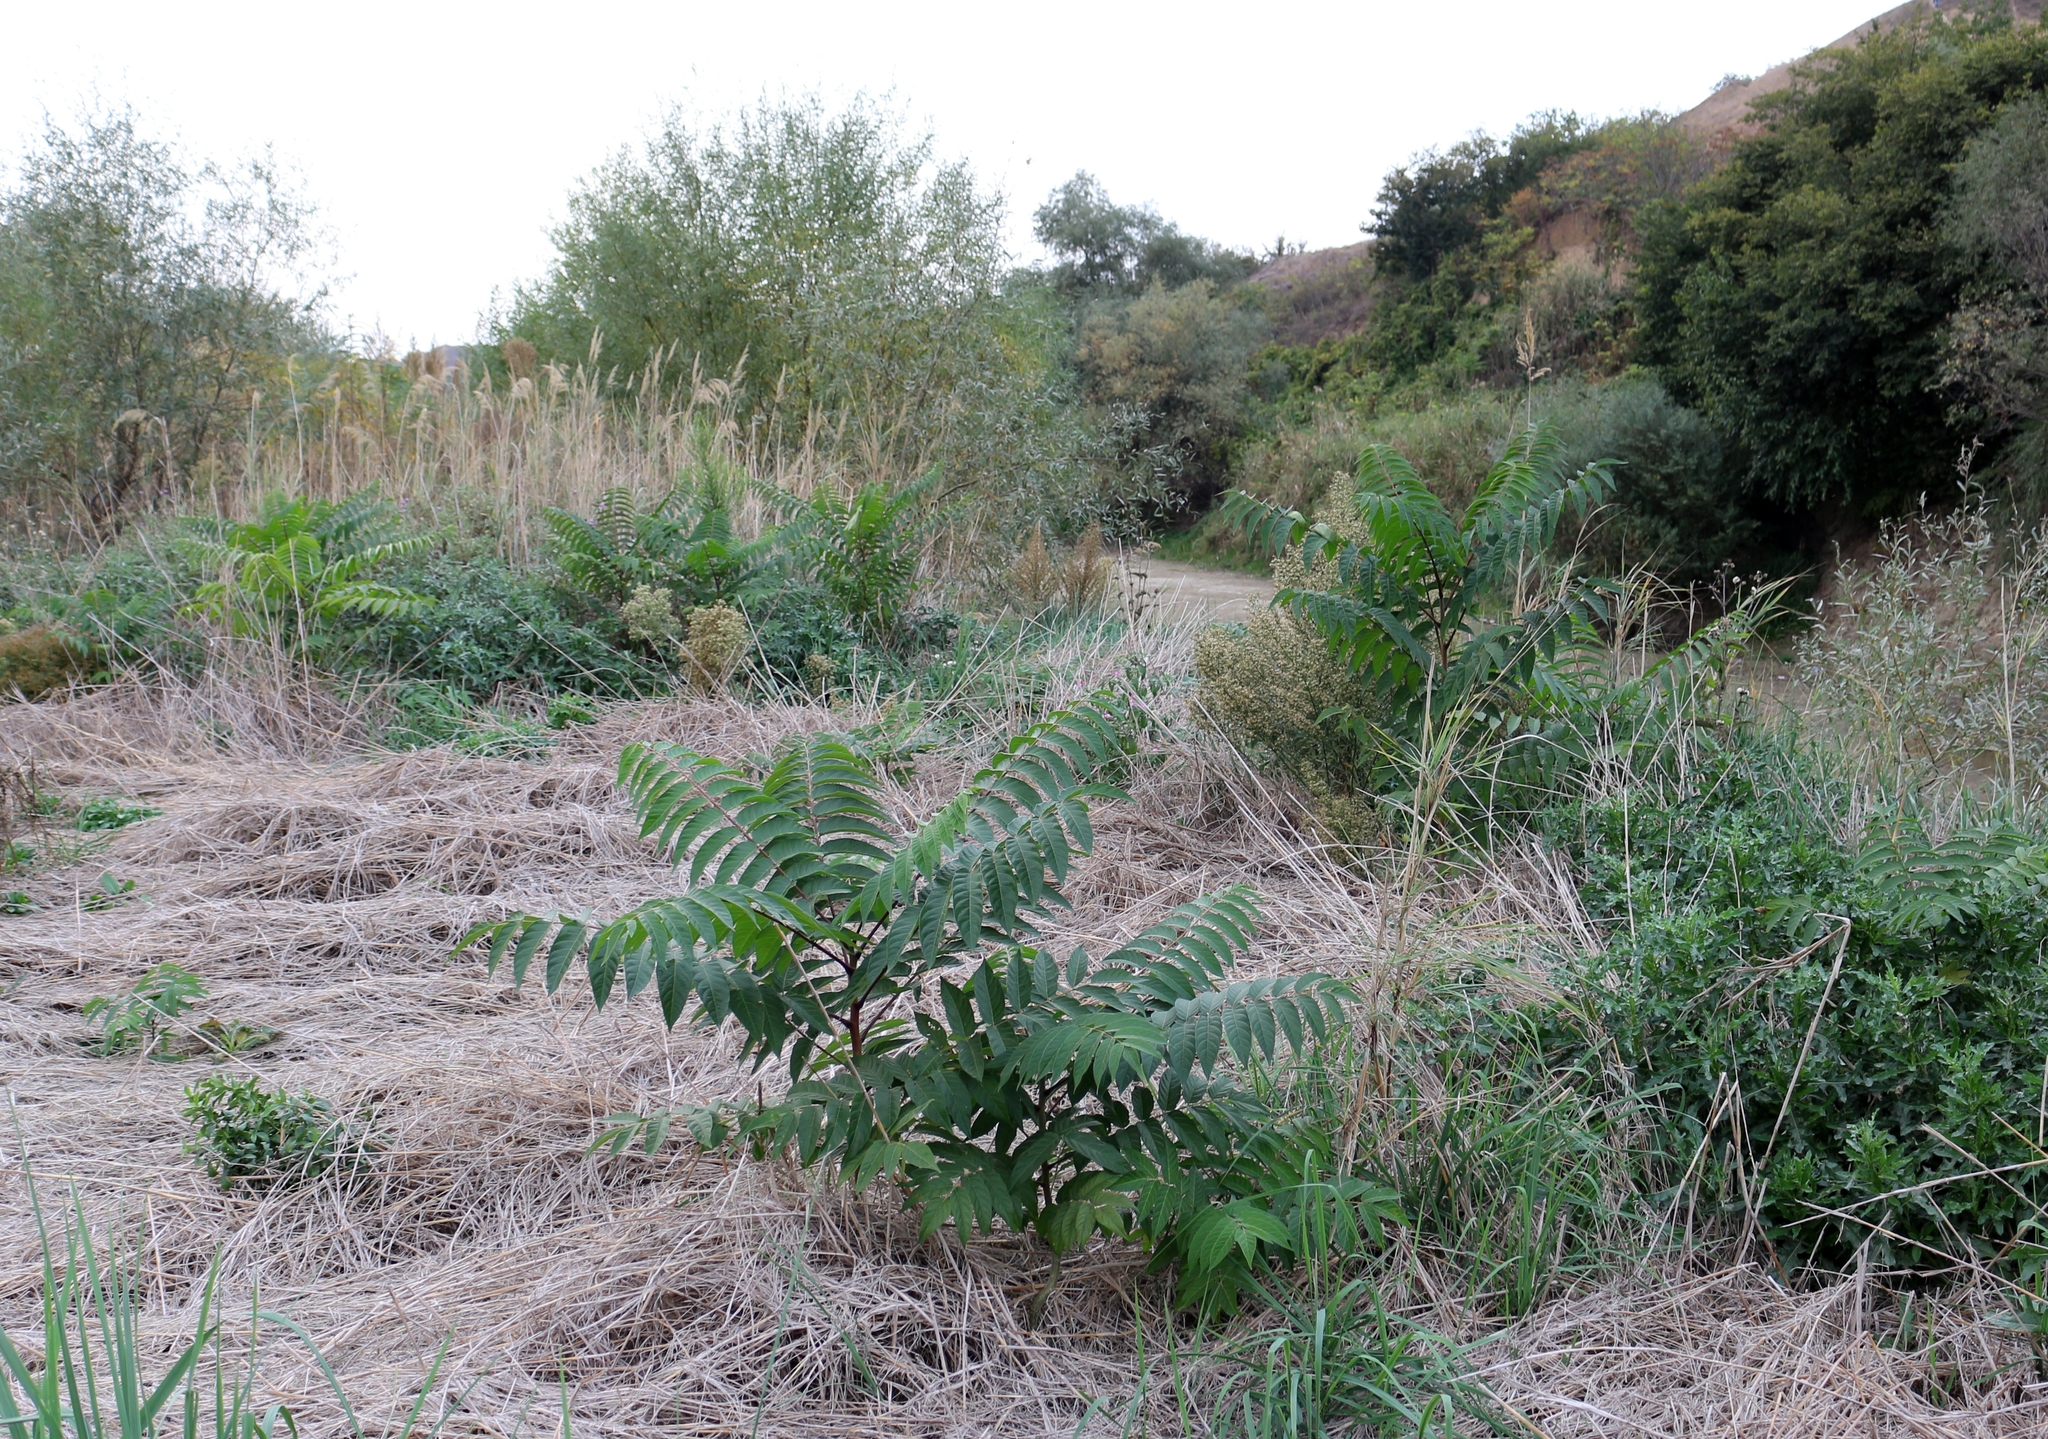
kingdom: Plantae
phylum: Tracheophyta
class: Magnoliopsida
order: Sapindales
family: Simaroubaceae
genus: Ailanthus
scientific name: Ailanthus altissima
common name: Tree-of-heaven
